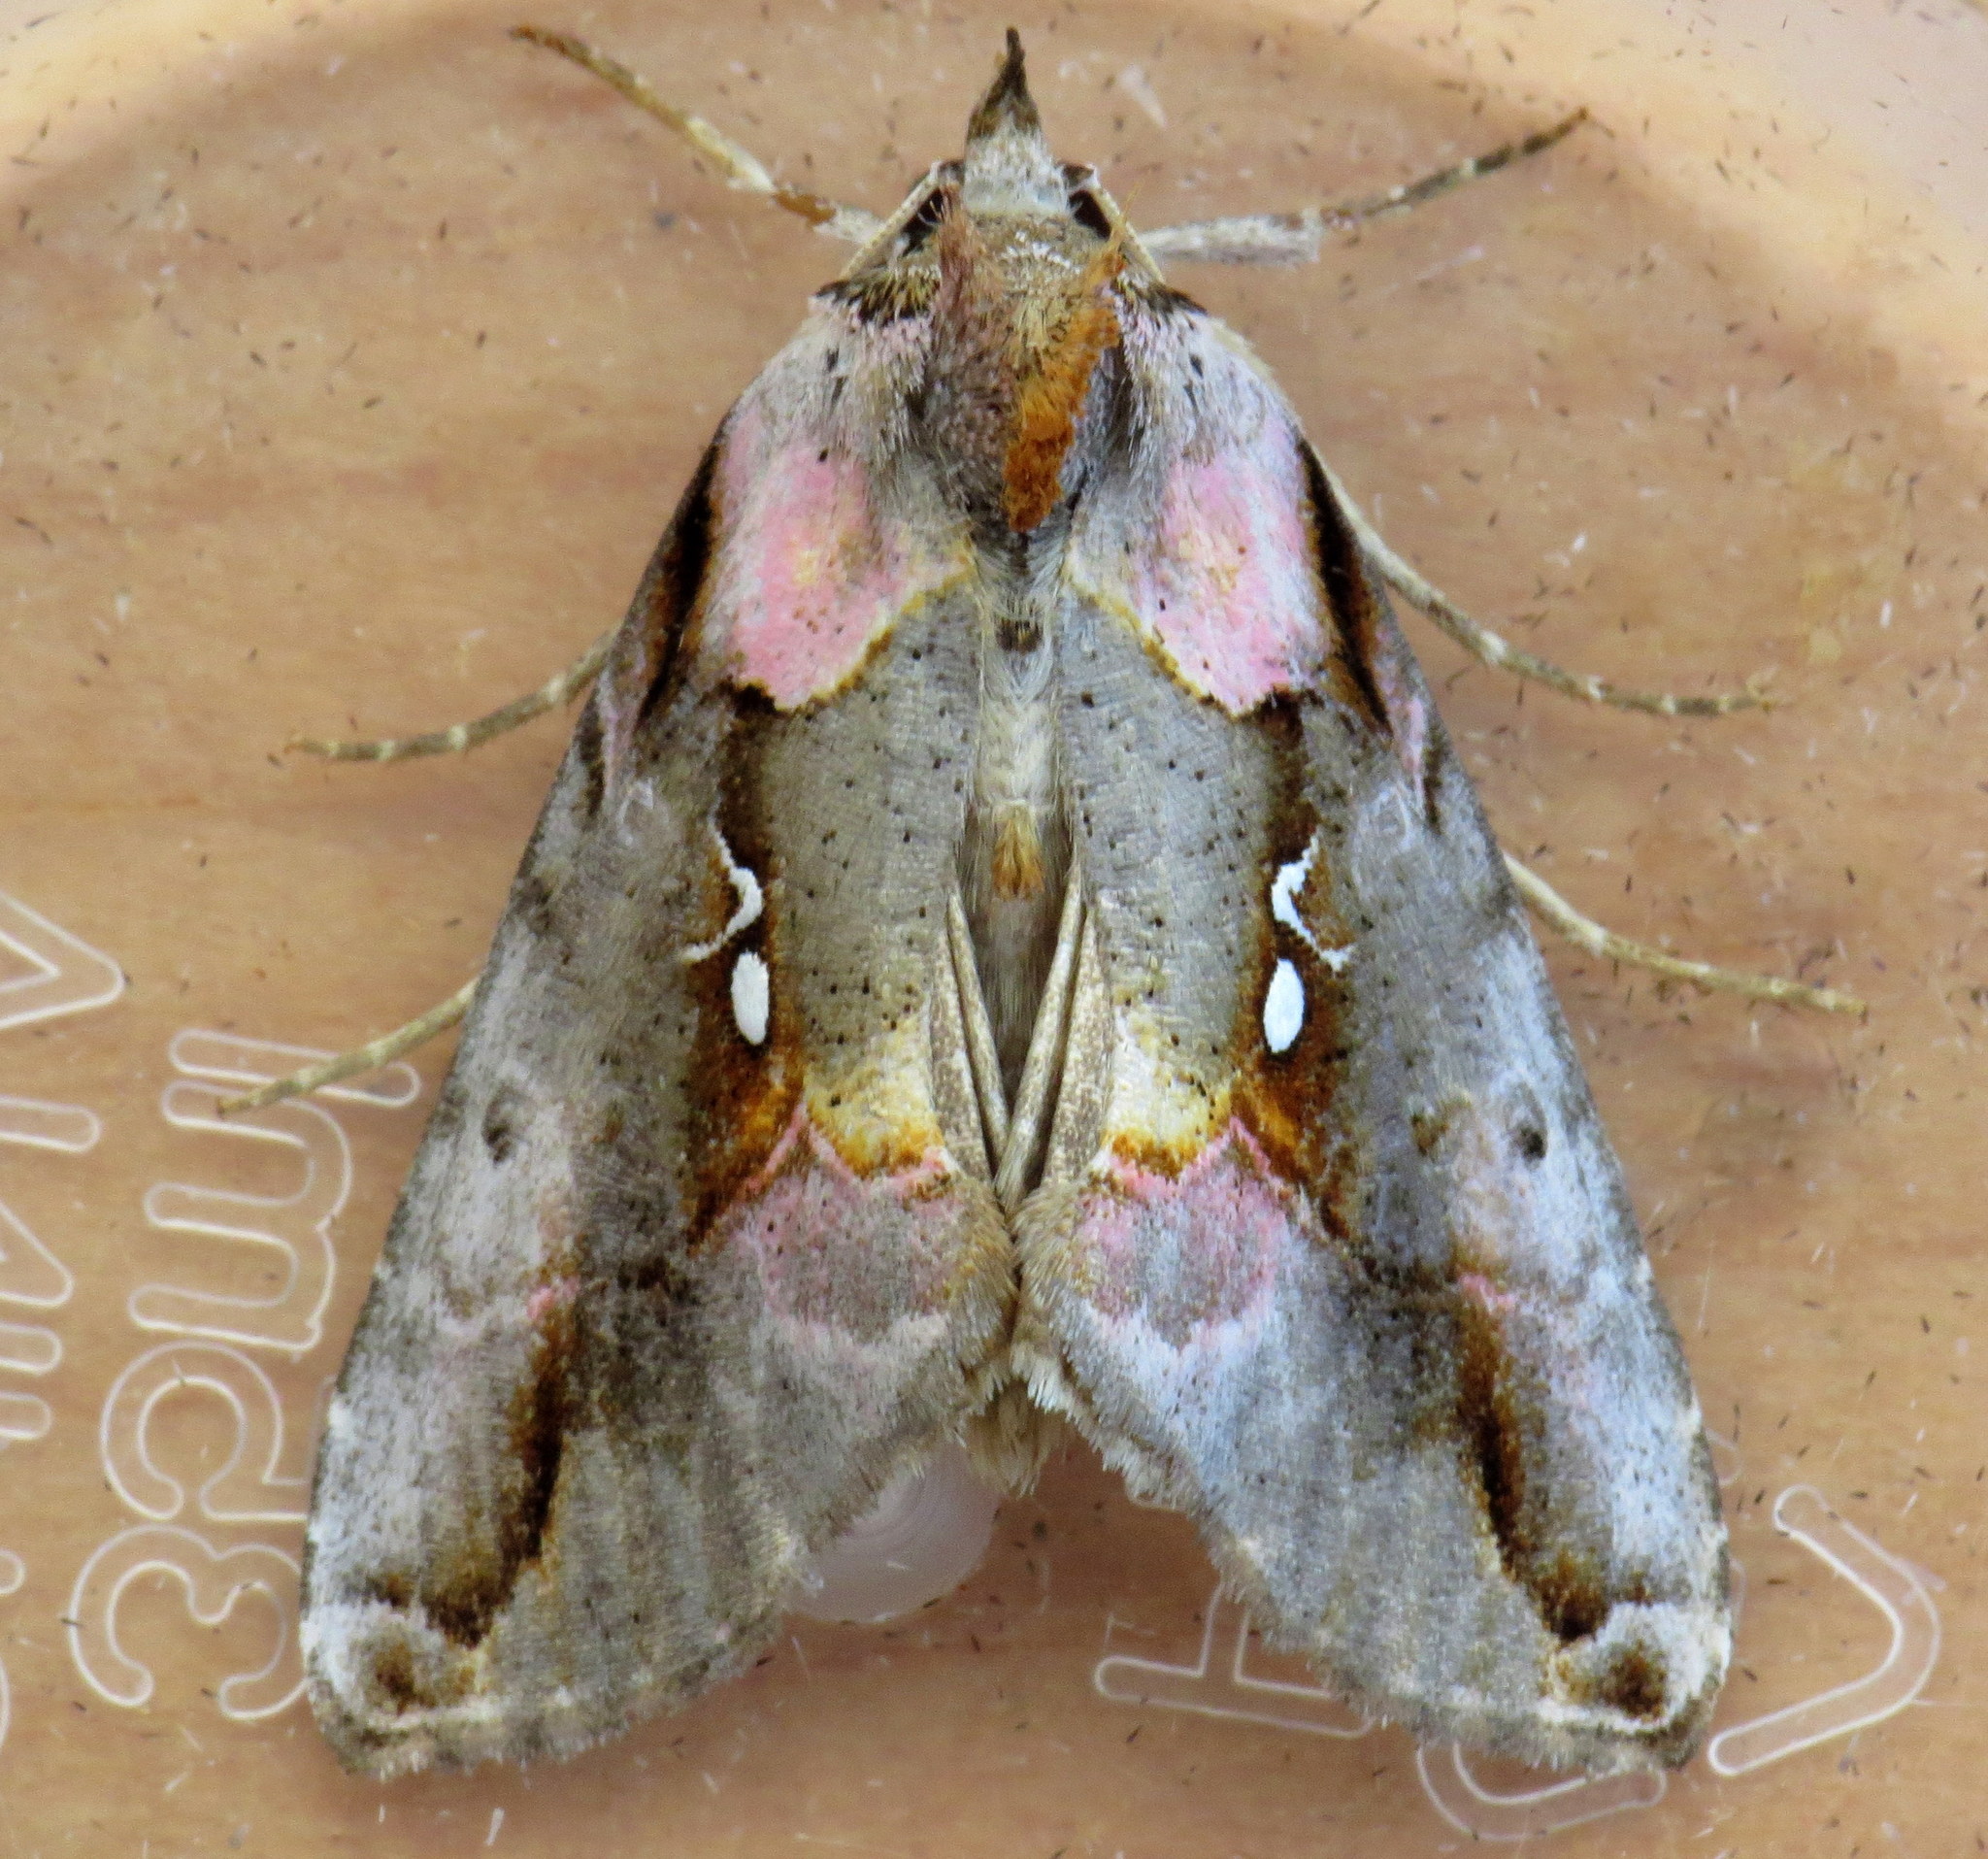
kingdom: Animalia
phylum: Arthropoda
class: Insecta
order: Lepidoptera
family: Noctuidae
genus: Eosphoropteryx
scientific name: Eosphoropteryx thyatyroides
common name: Pinkpatched looper moth
